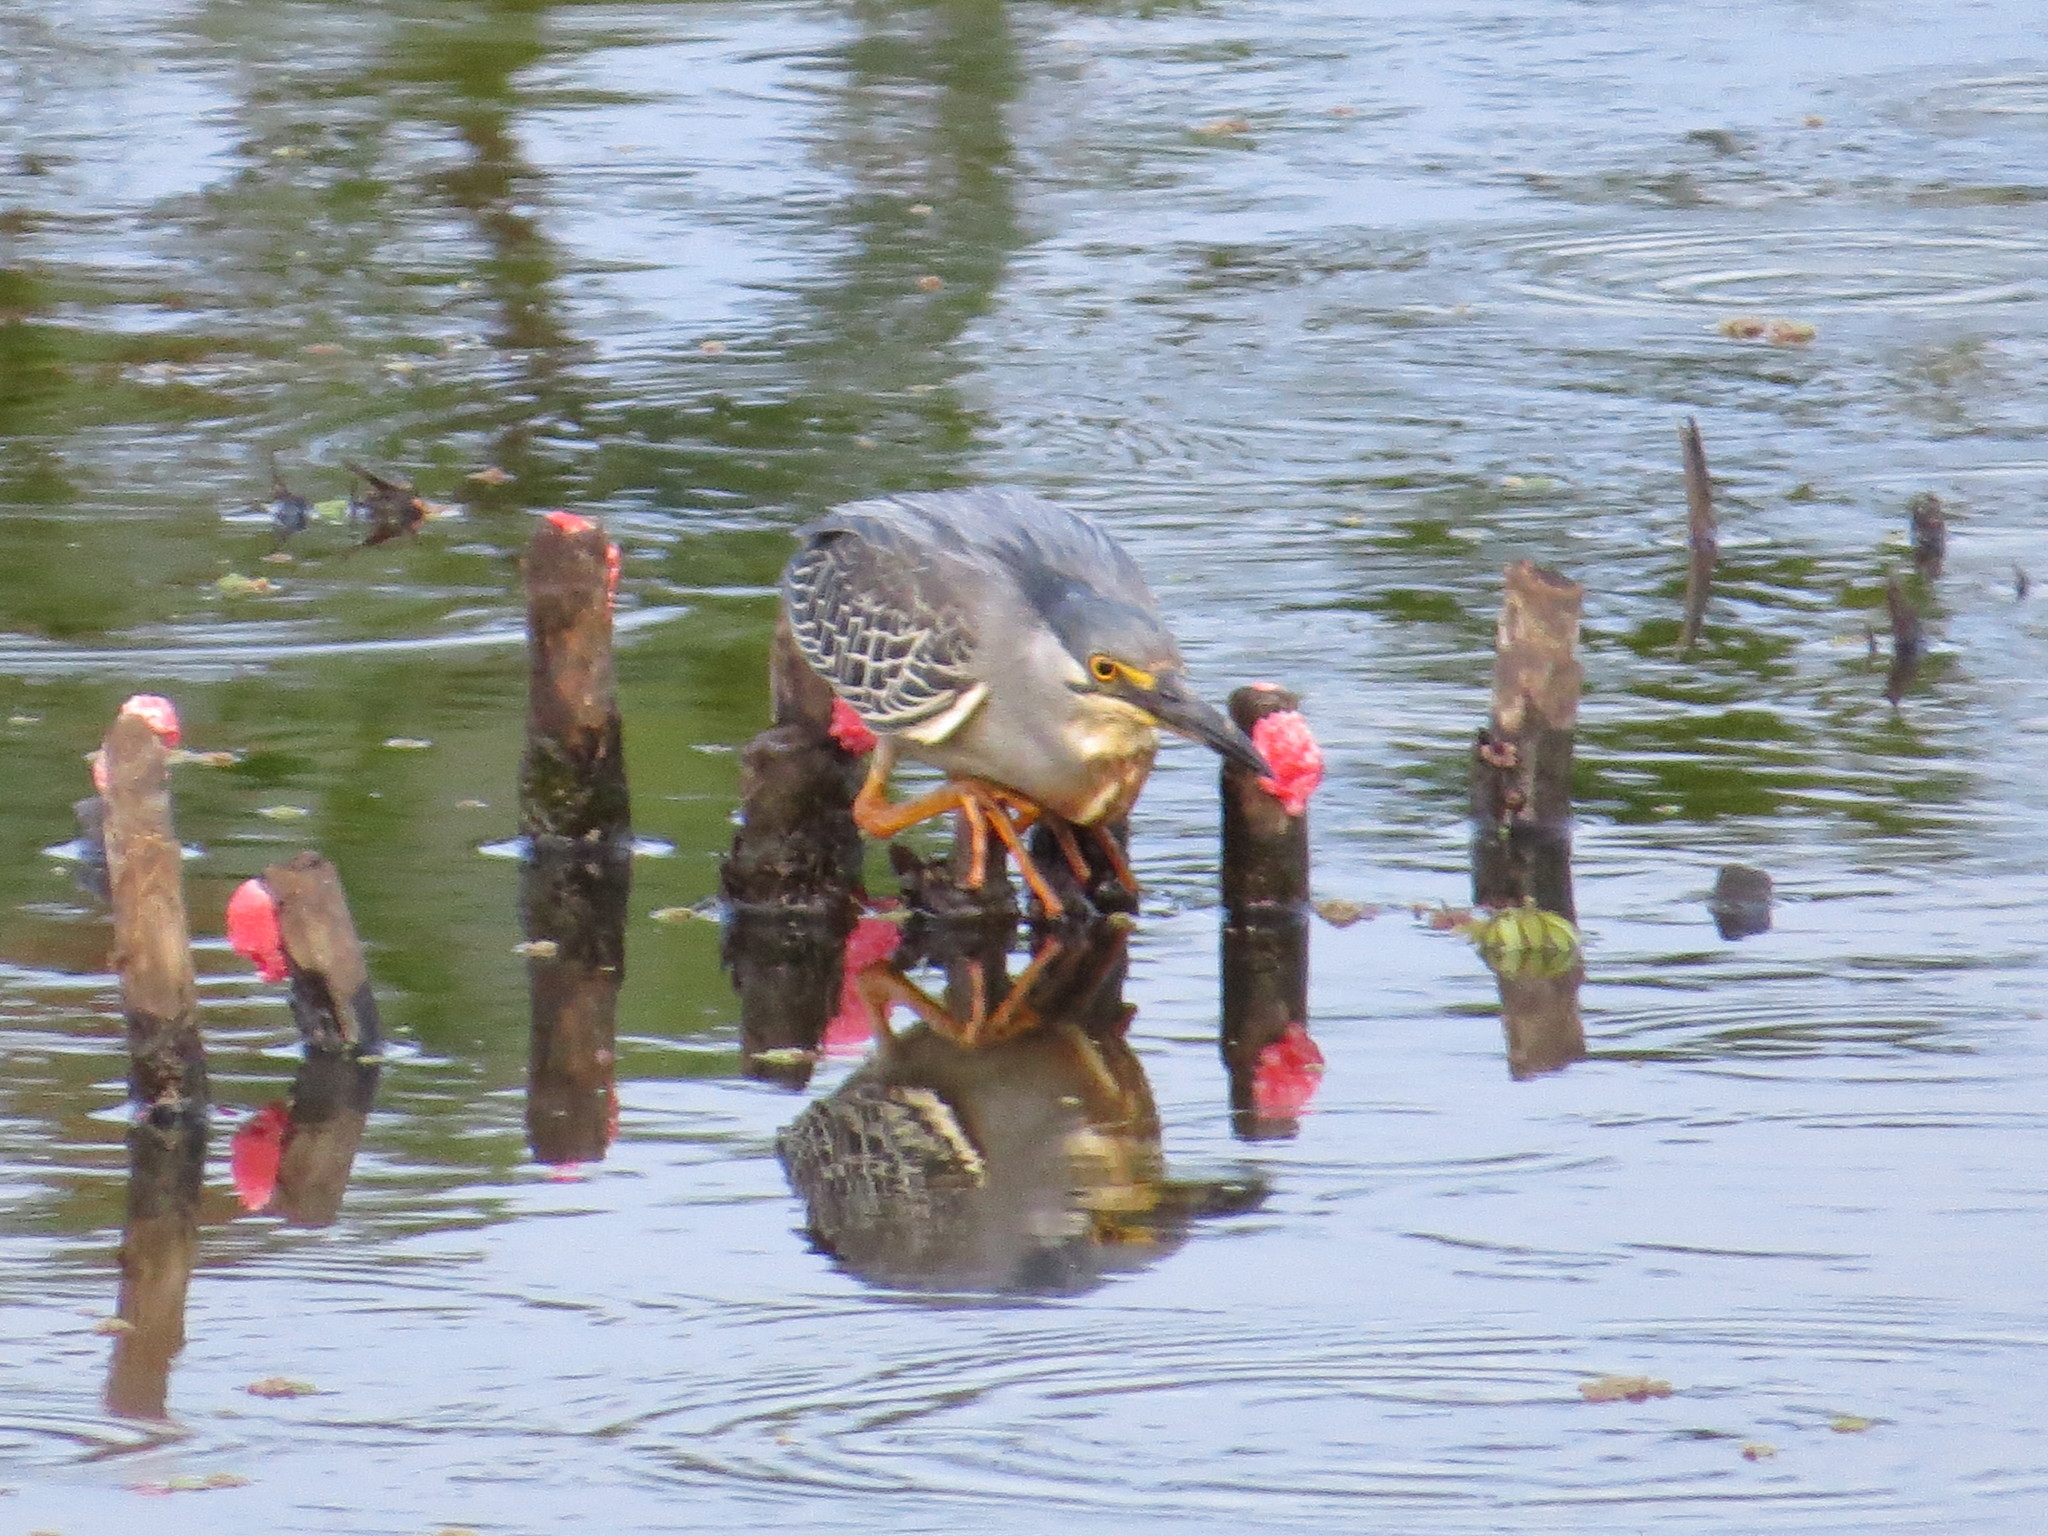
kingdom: Animalia
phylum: Chordata
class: Aves
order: Pelecaniformes
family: Ardeidae
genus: Butorides
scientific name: Butorides striata
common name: Striated heron
